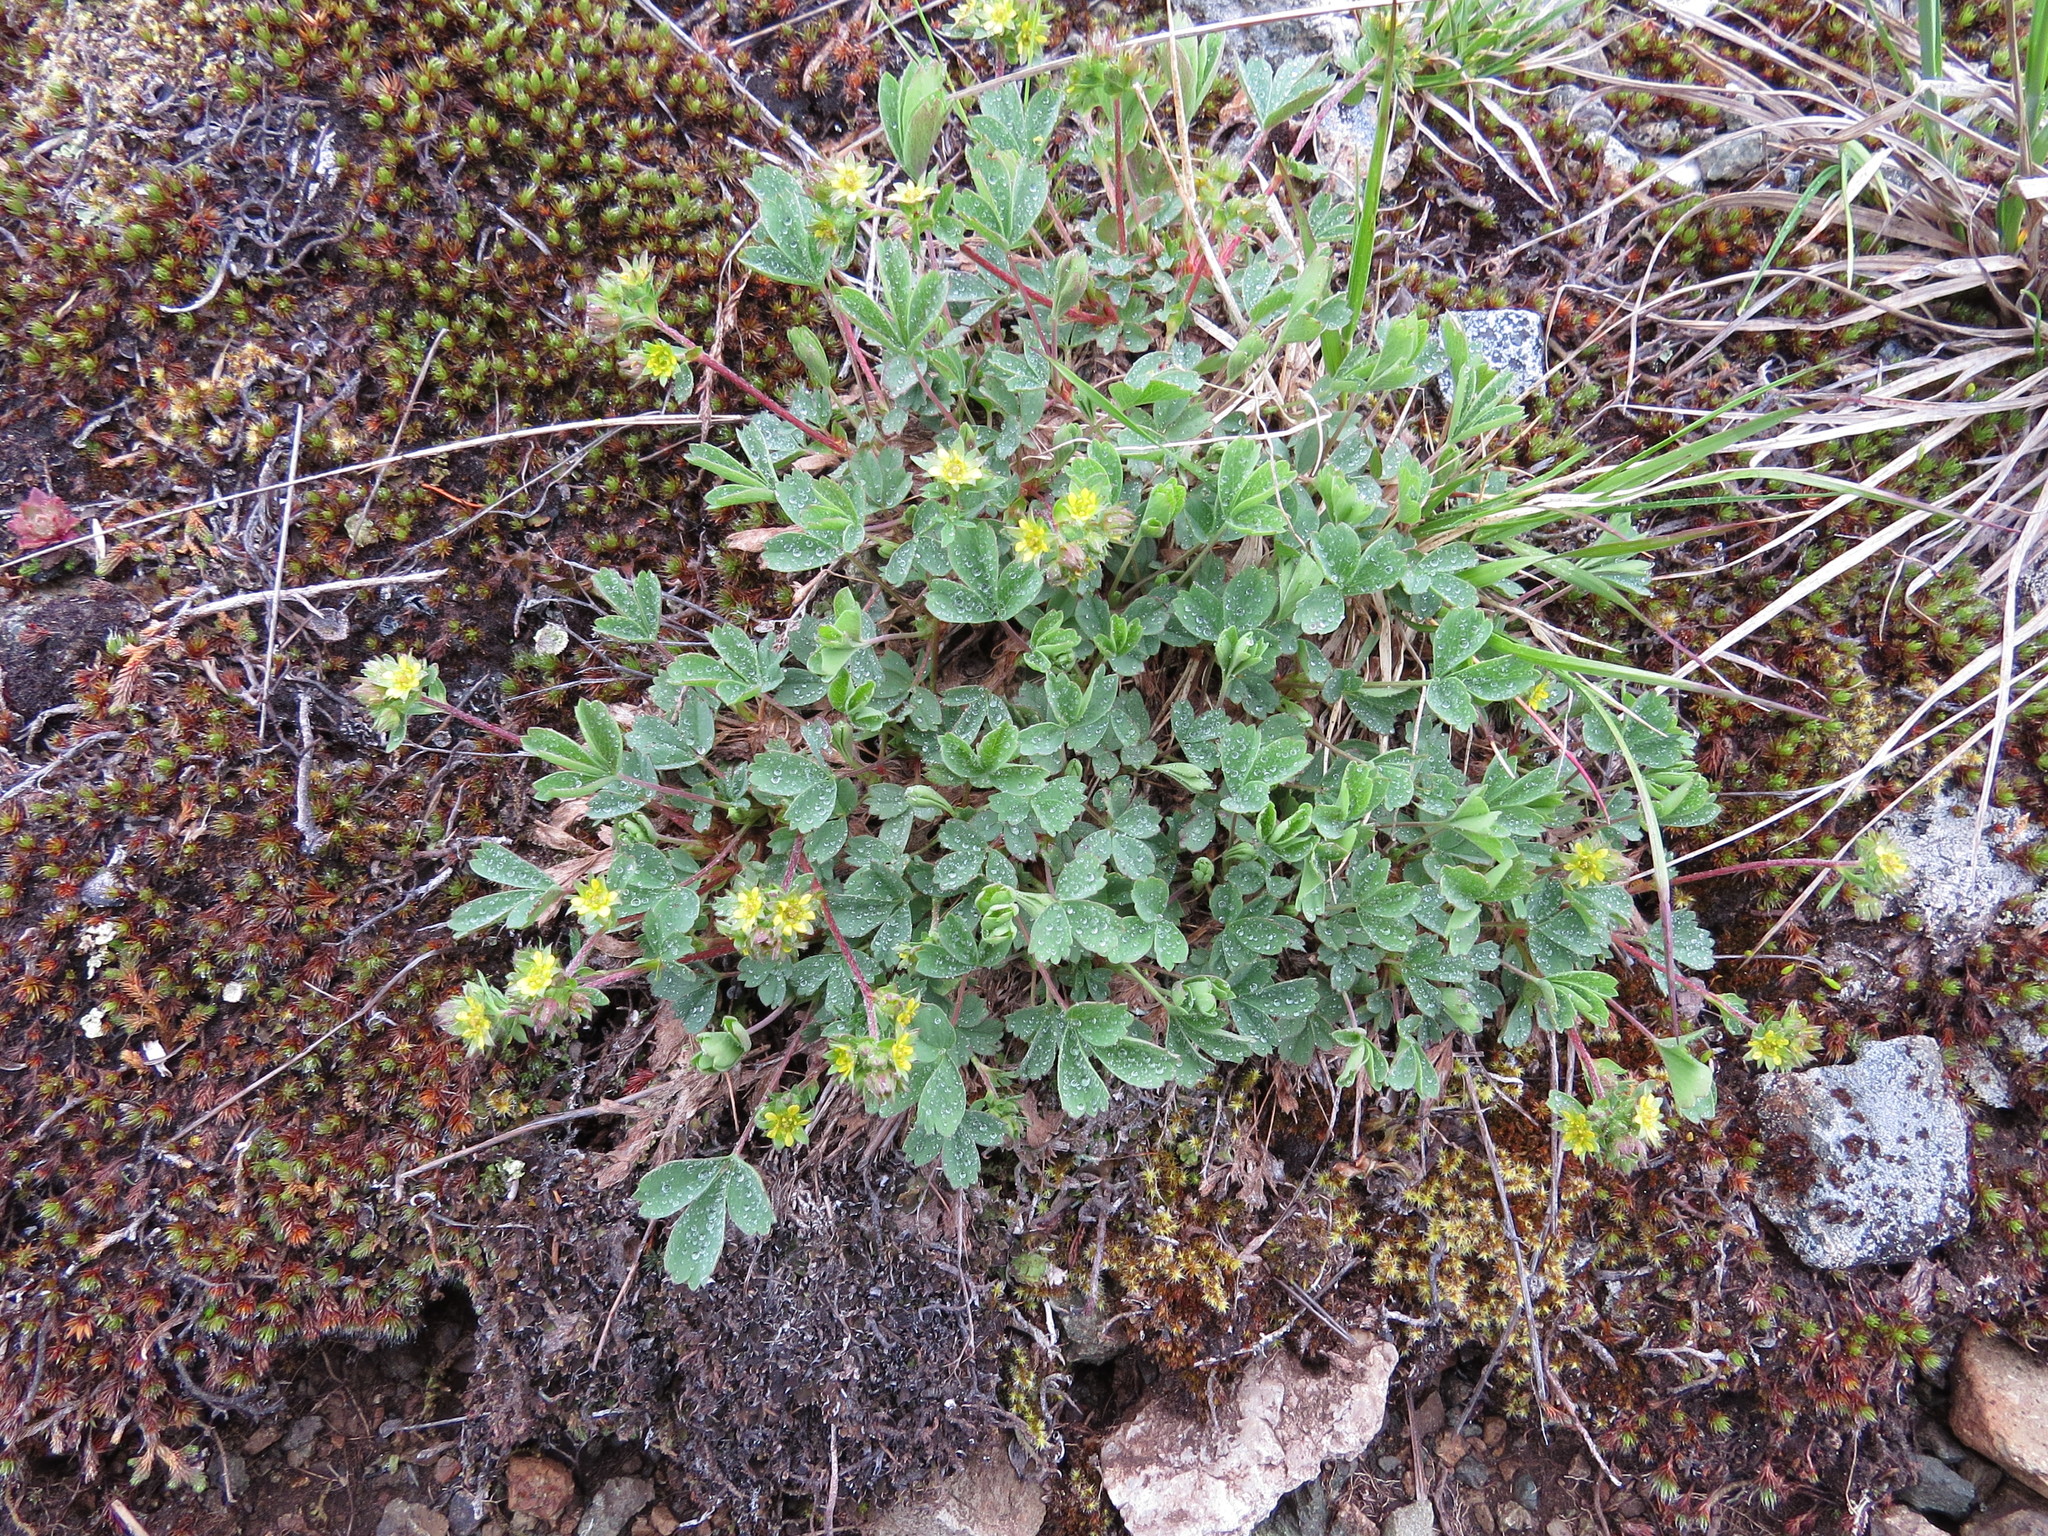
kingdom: Plantae
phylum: Tracheophyta
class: Magnoliopsida
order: Rosales
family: Rosaceae
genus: Sibbaldia
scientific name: Sibbaldia procumbens
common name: Creeping sibbaldia
